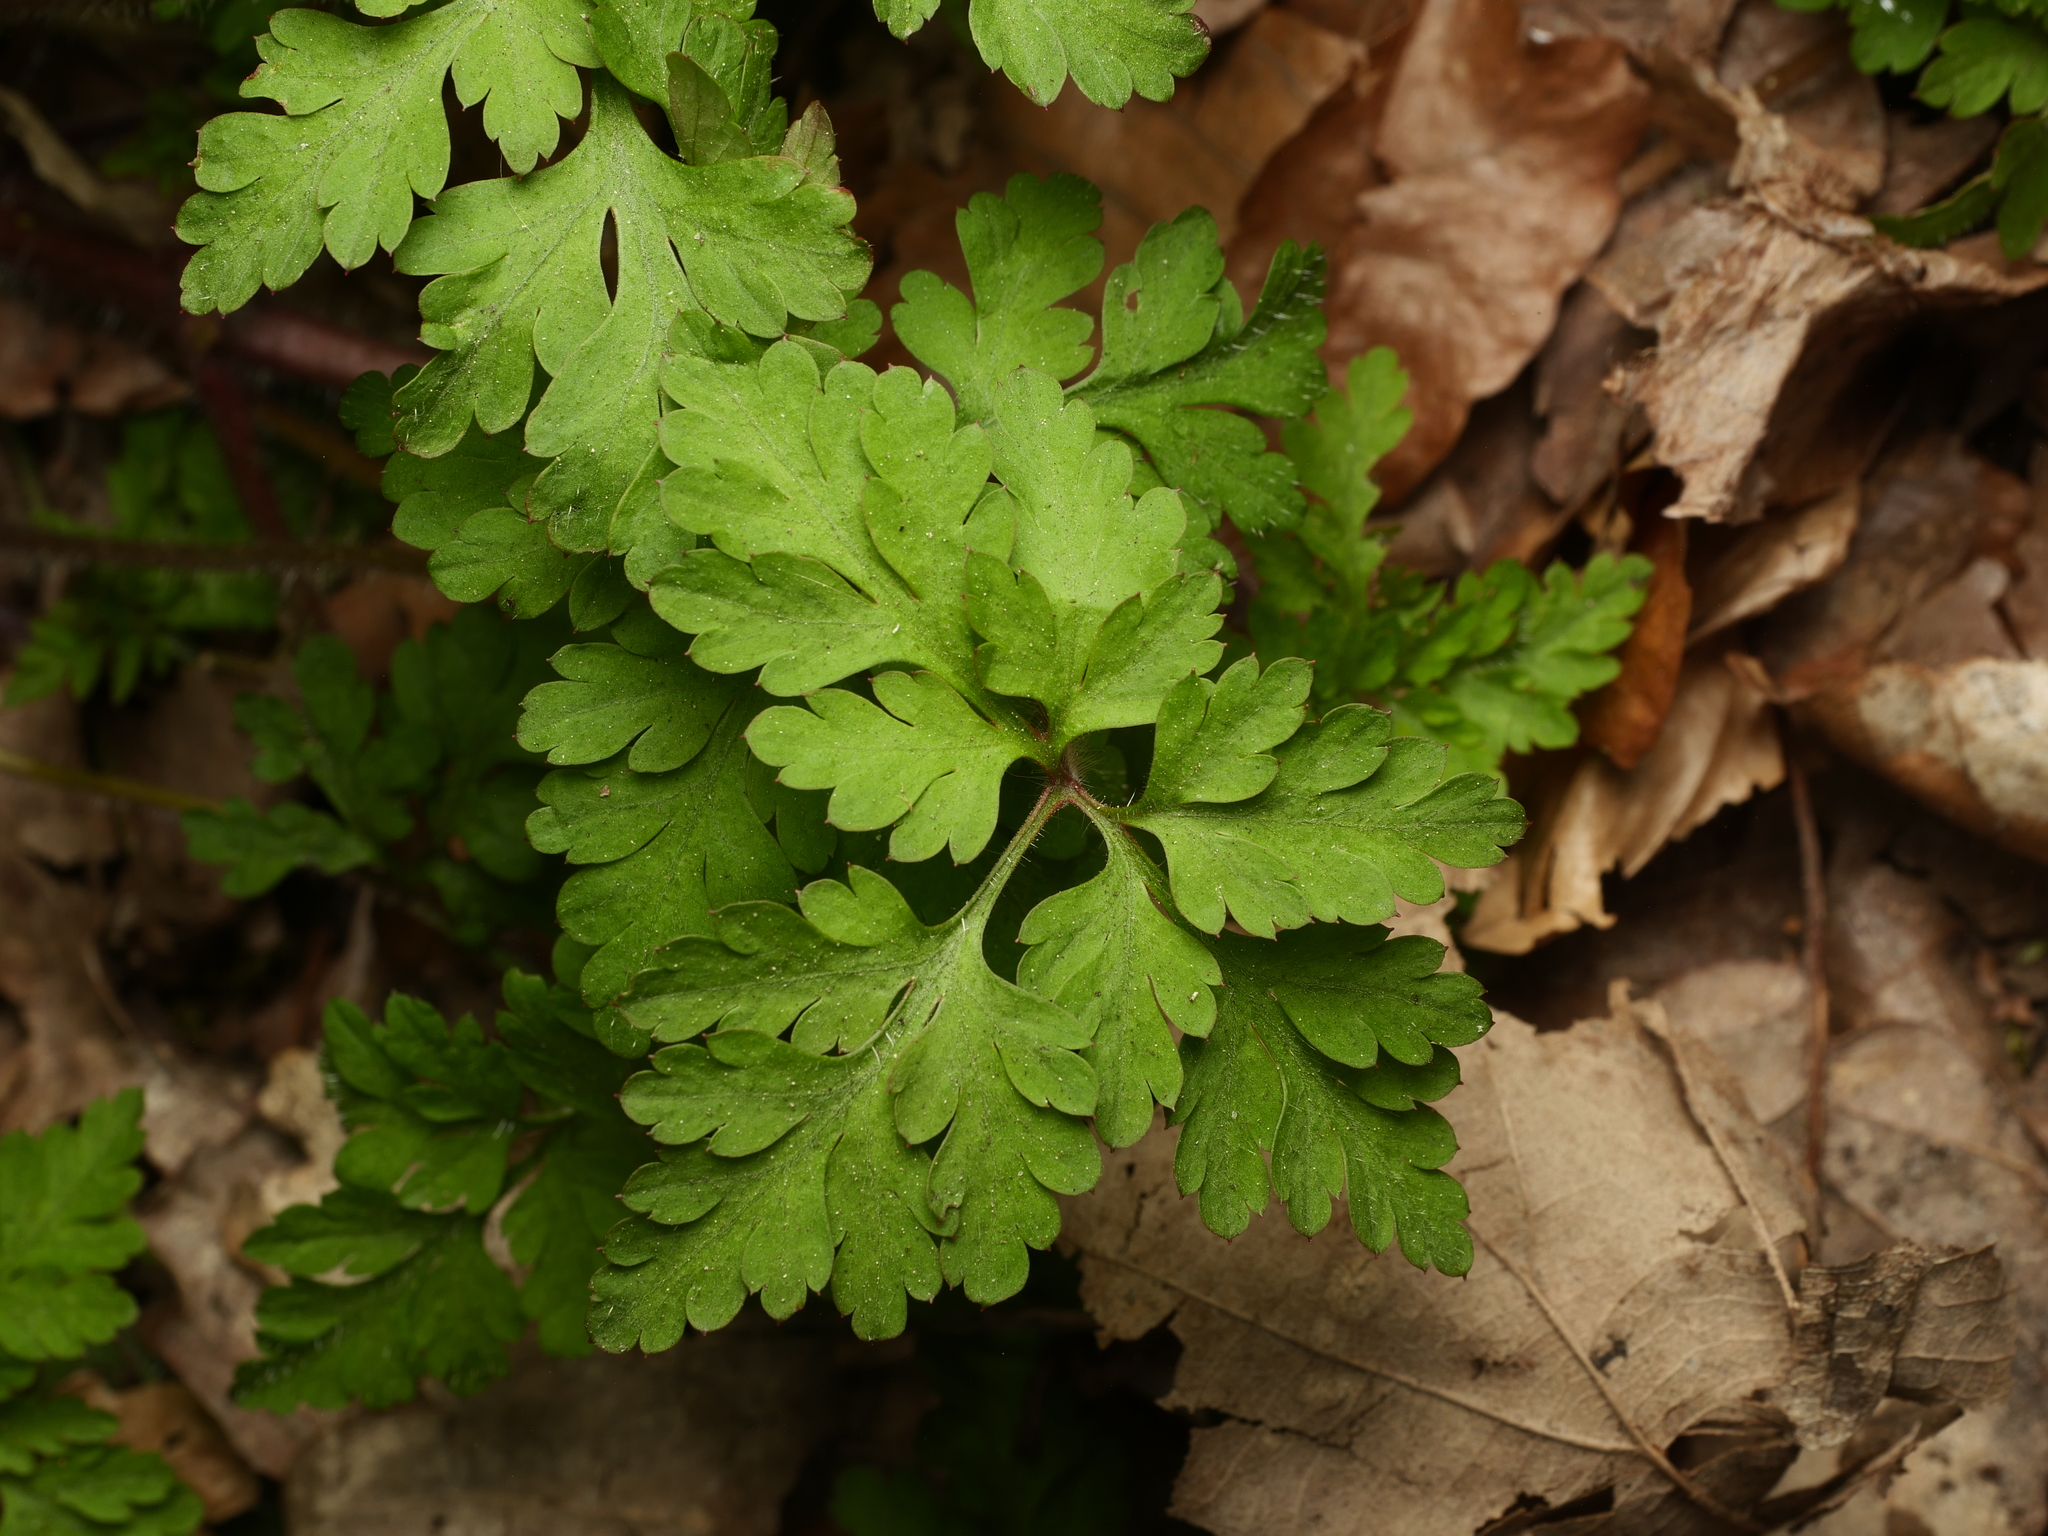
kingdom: Plantae
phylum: Tracheophyta
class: Magnoliopsida
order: Geraniales
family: Geraniaceae
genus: Geranium
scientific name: Geranium robertianum
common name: Herb-robert
